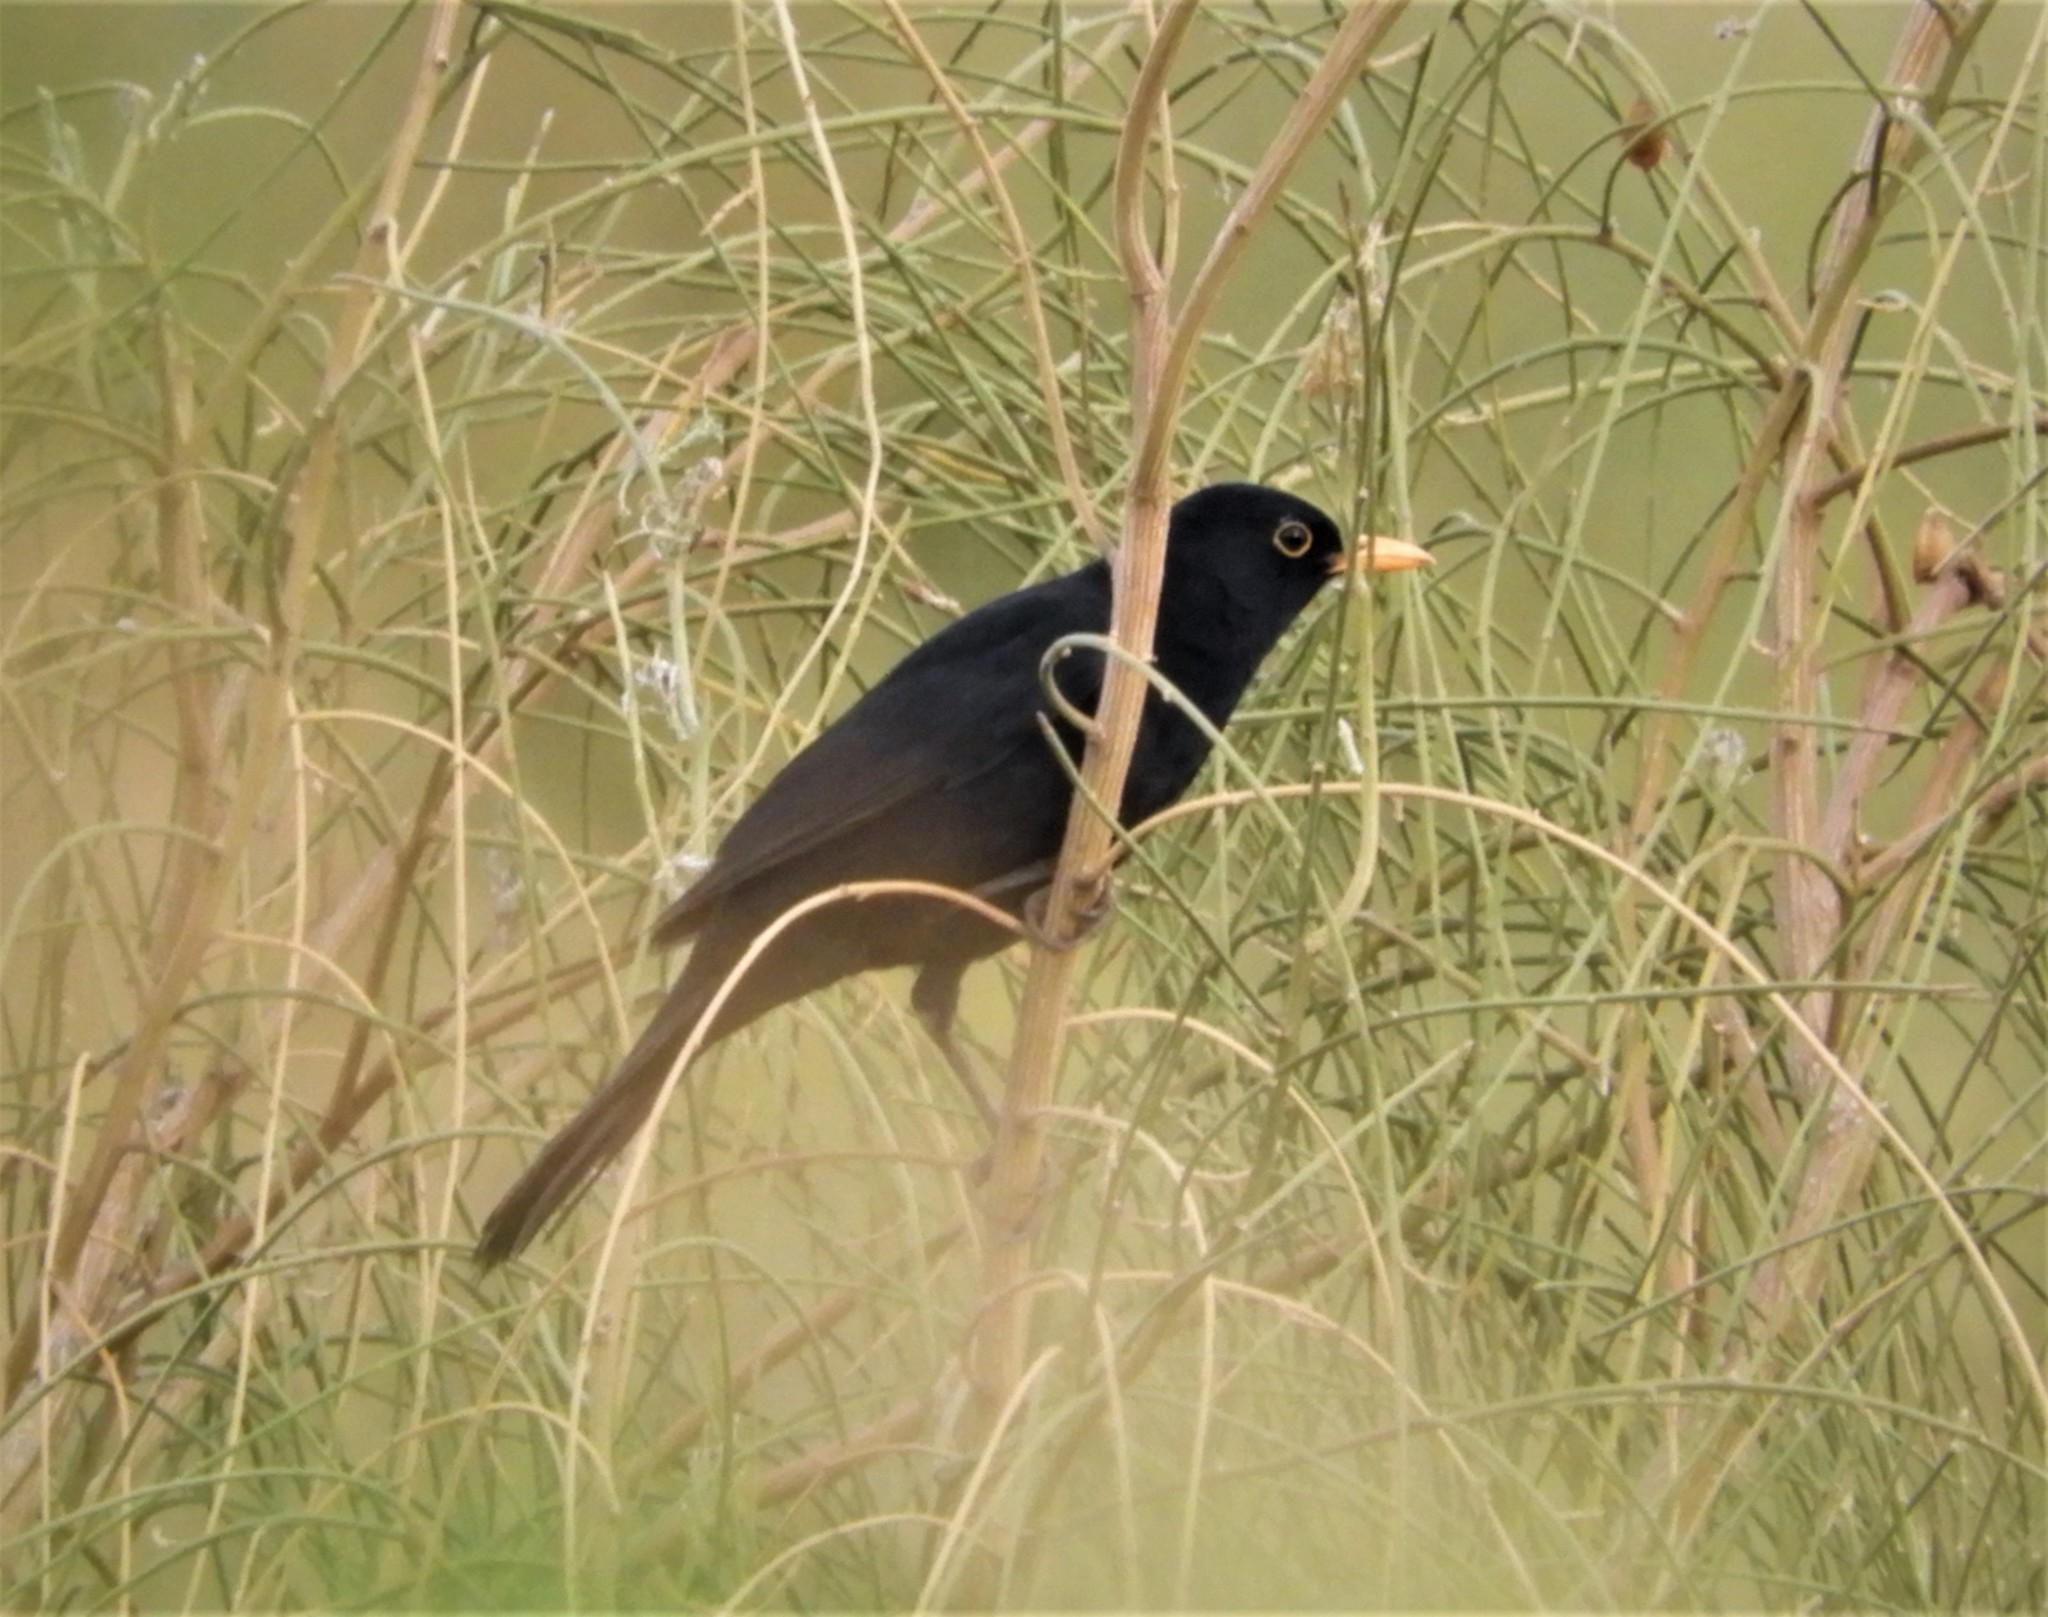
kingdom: Animalia
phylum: Chordata
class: Aves
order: Passeriformes
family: Turdidae
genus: Turdus
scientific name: Turdus merula
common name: Common blackbird
